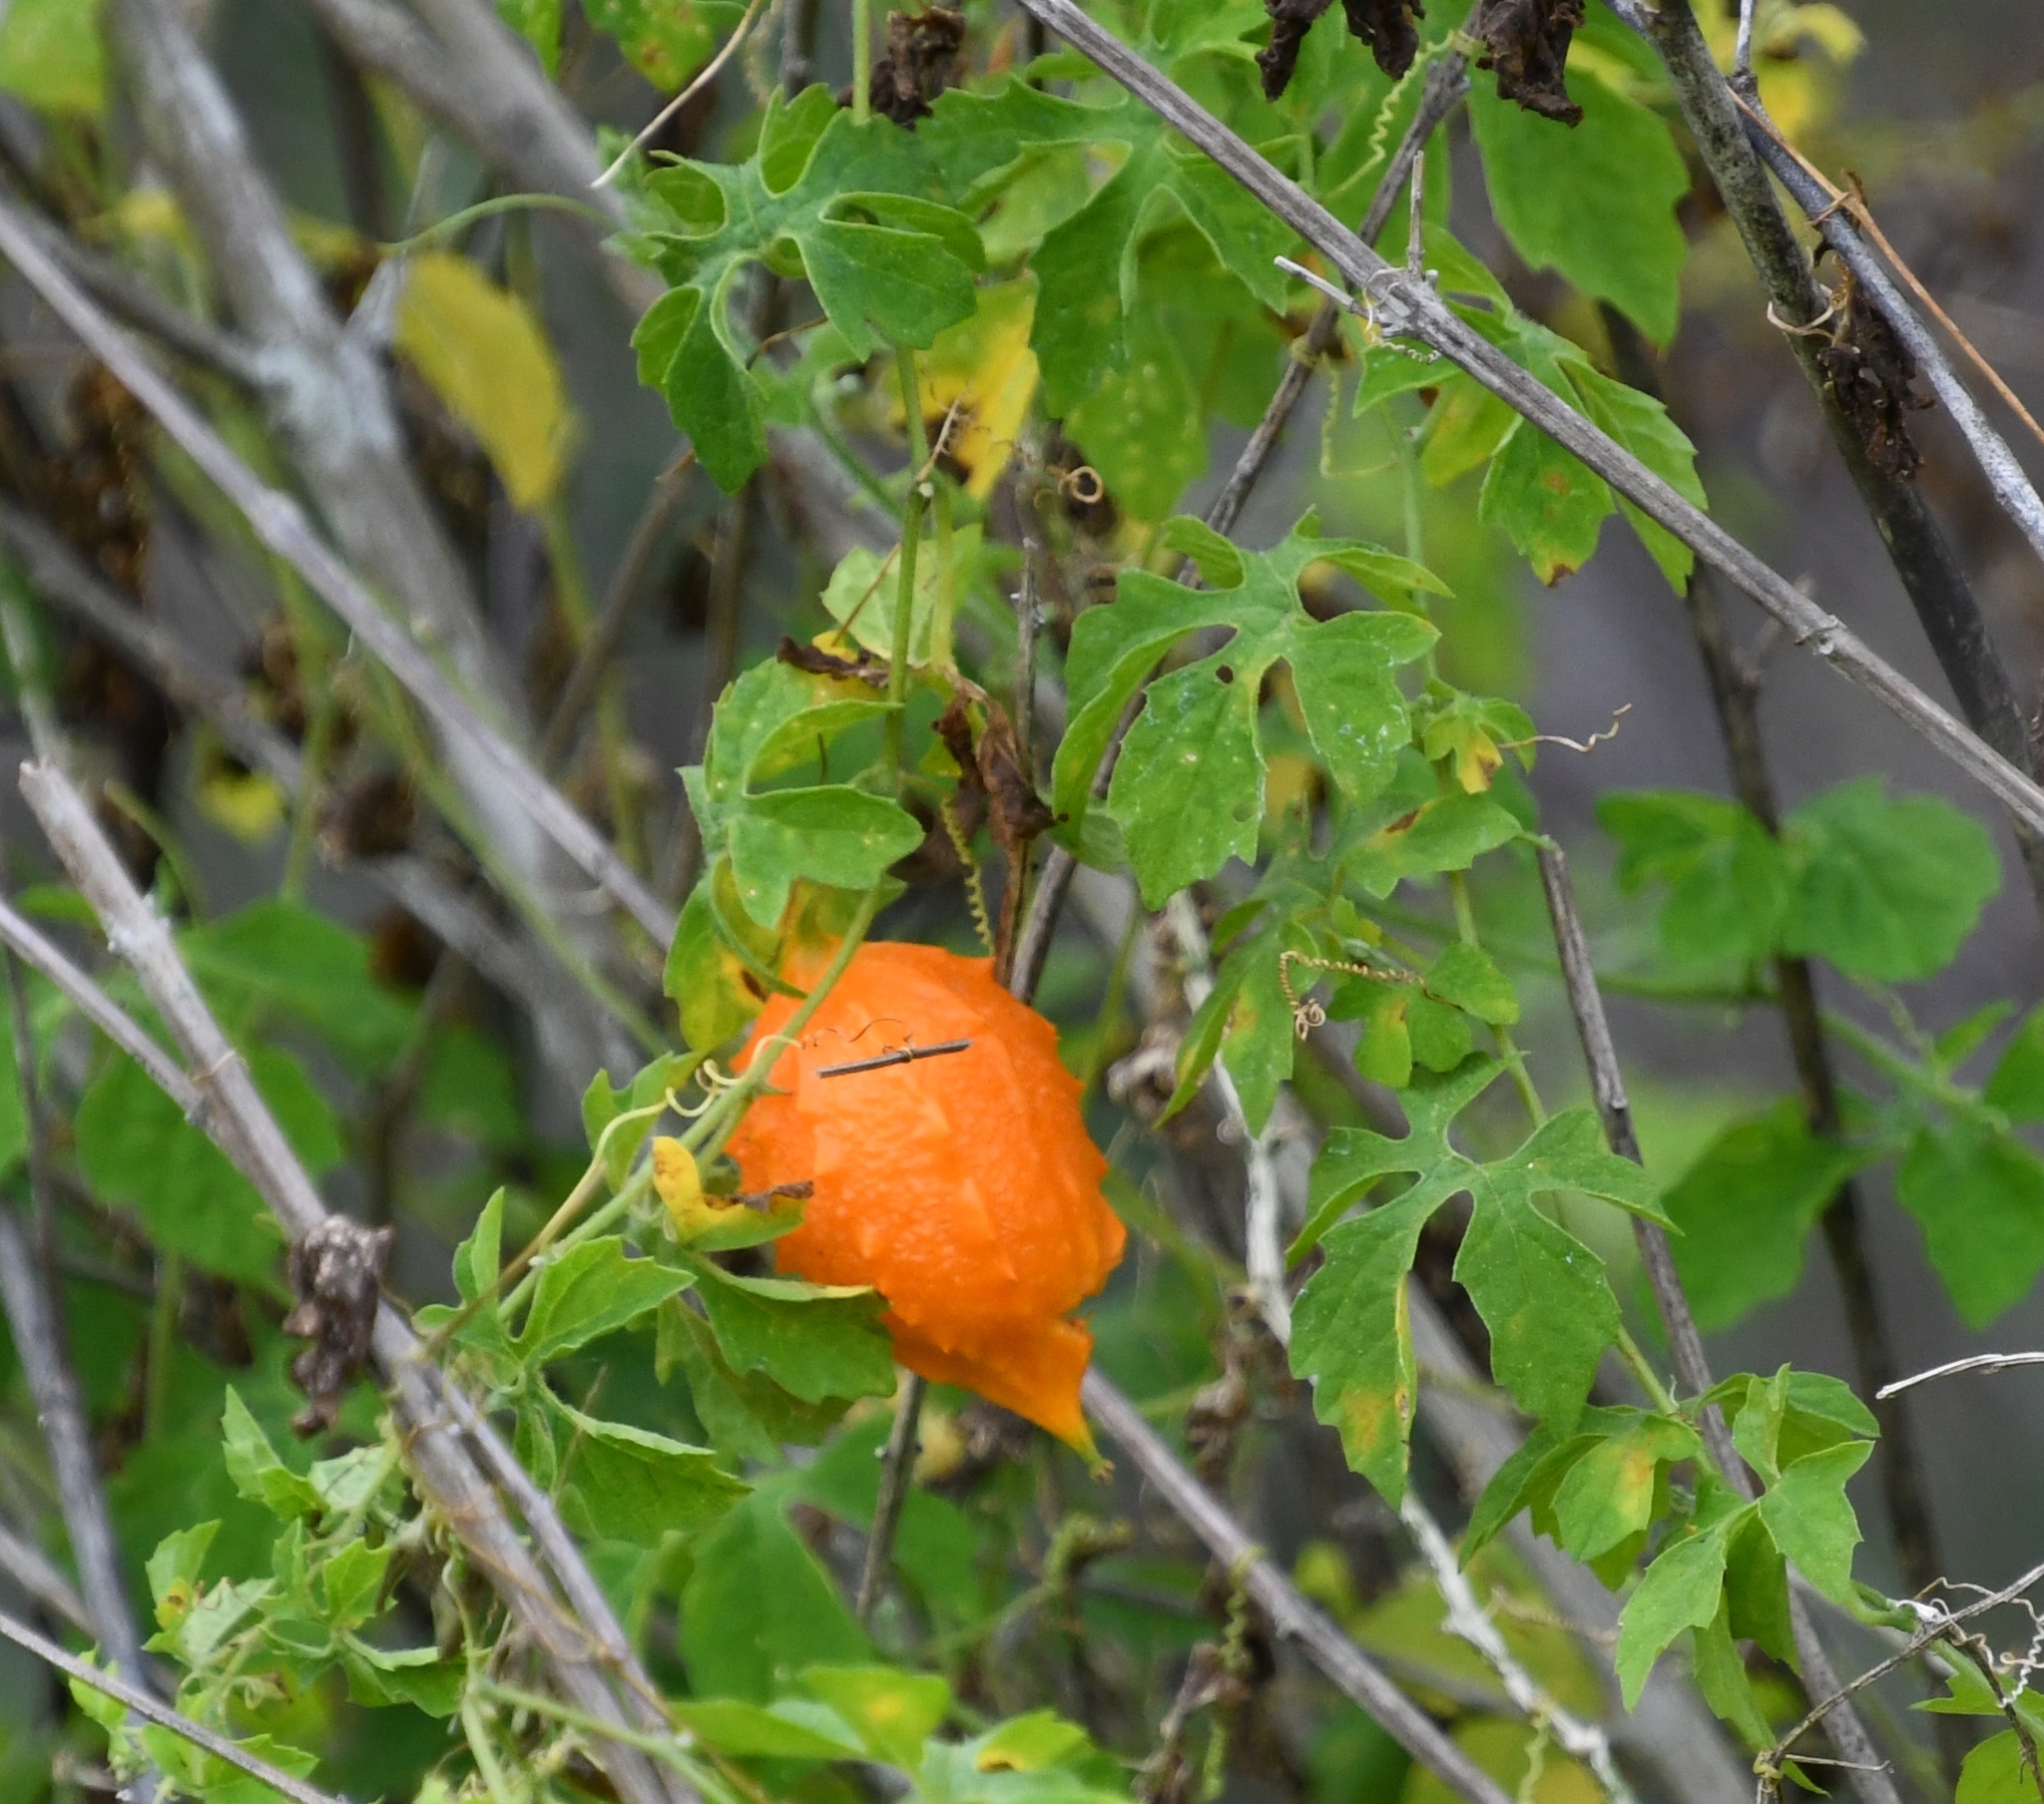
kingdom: Plantae
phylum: Tracheophyta
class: Magnoliopsida
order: Cucurbitales
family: Cucurbitaceae
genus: Momordica
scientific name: Momordica charantia
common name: Balsampear
